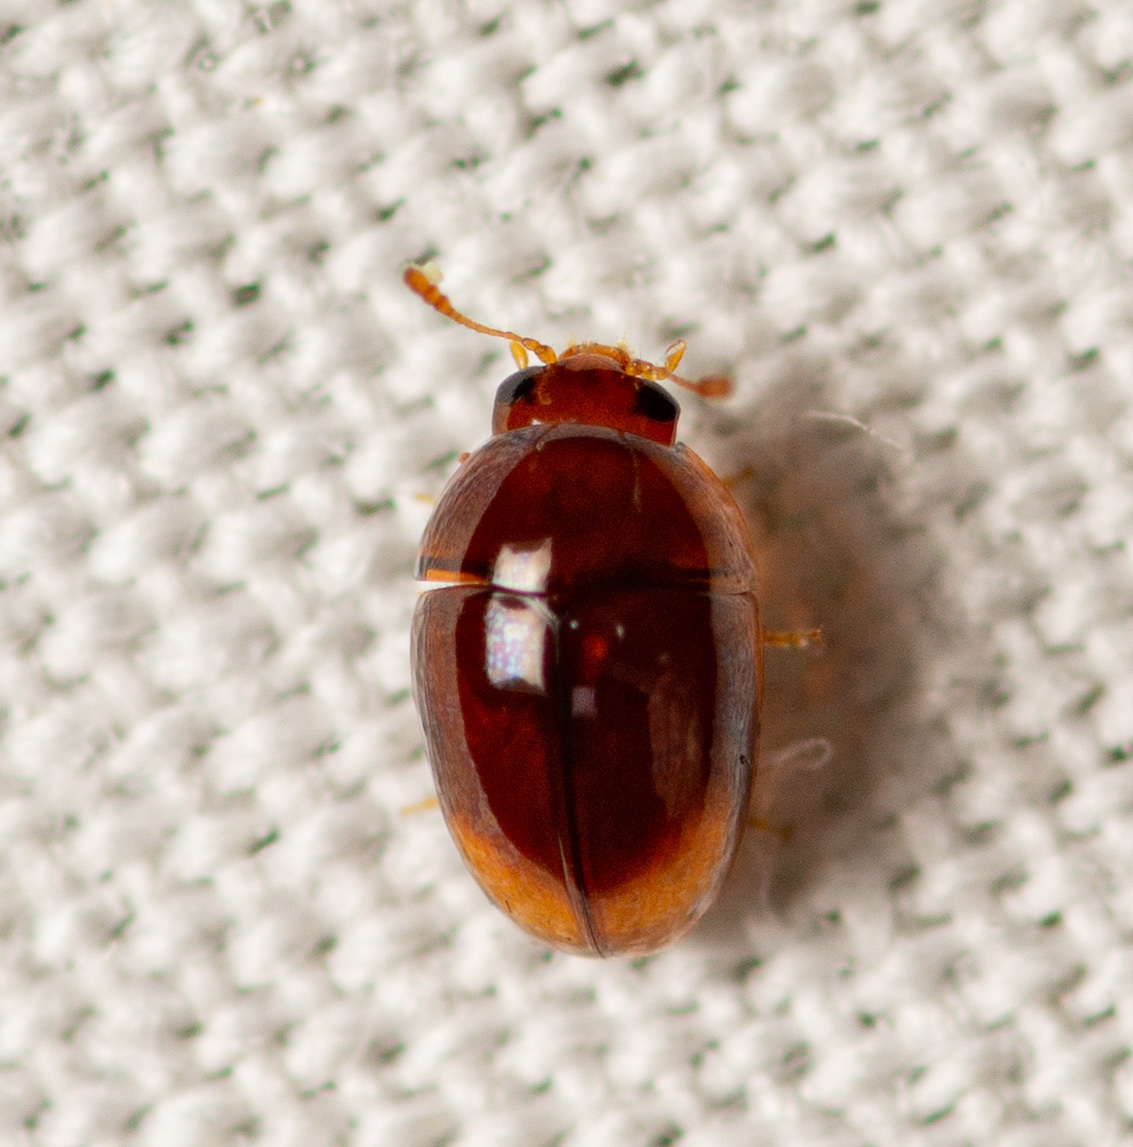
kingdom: Animalia
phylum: Arthropoda
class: Insecta
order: Coleoptera
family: Phalacridae
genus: Phalacrus
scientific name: Phalacrus apicalis
